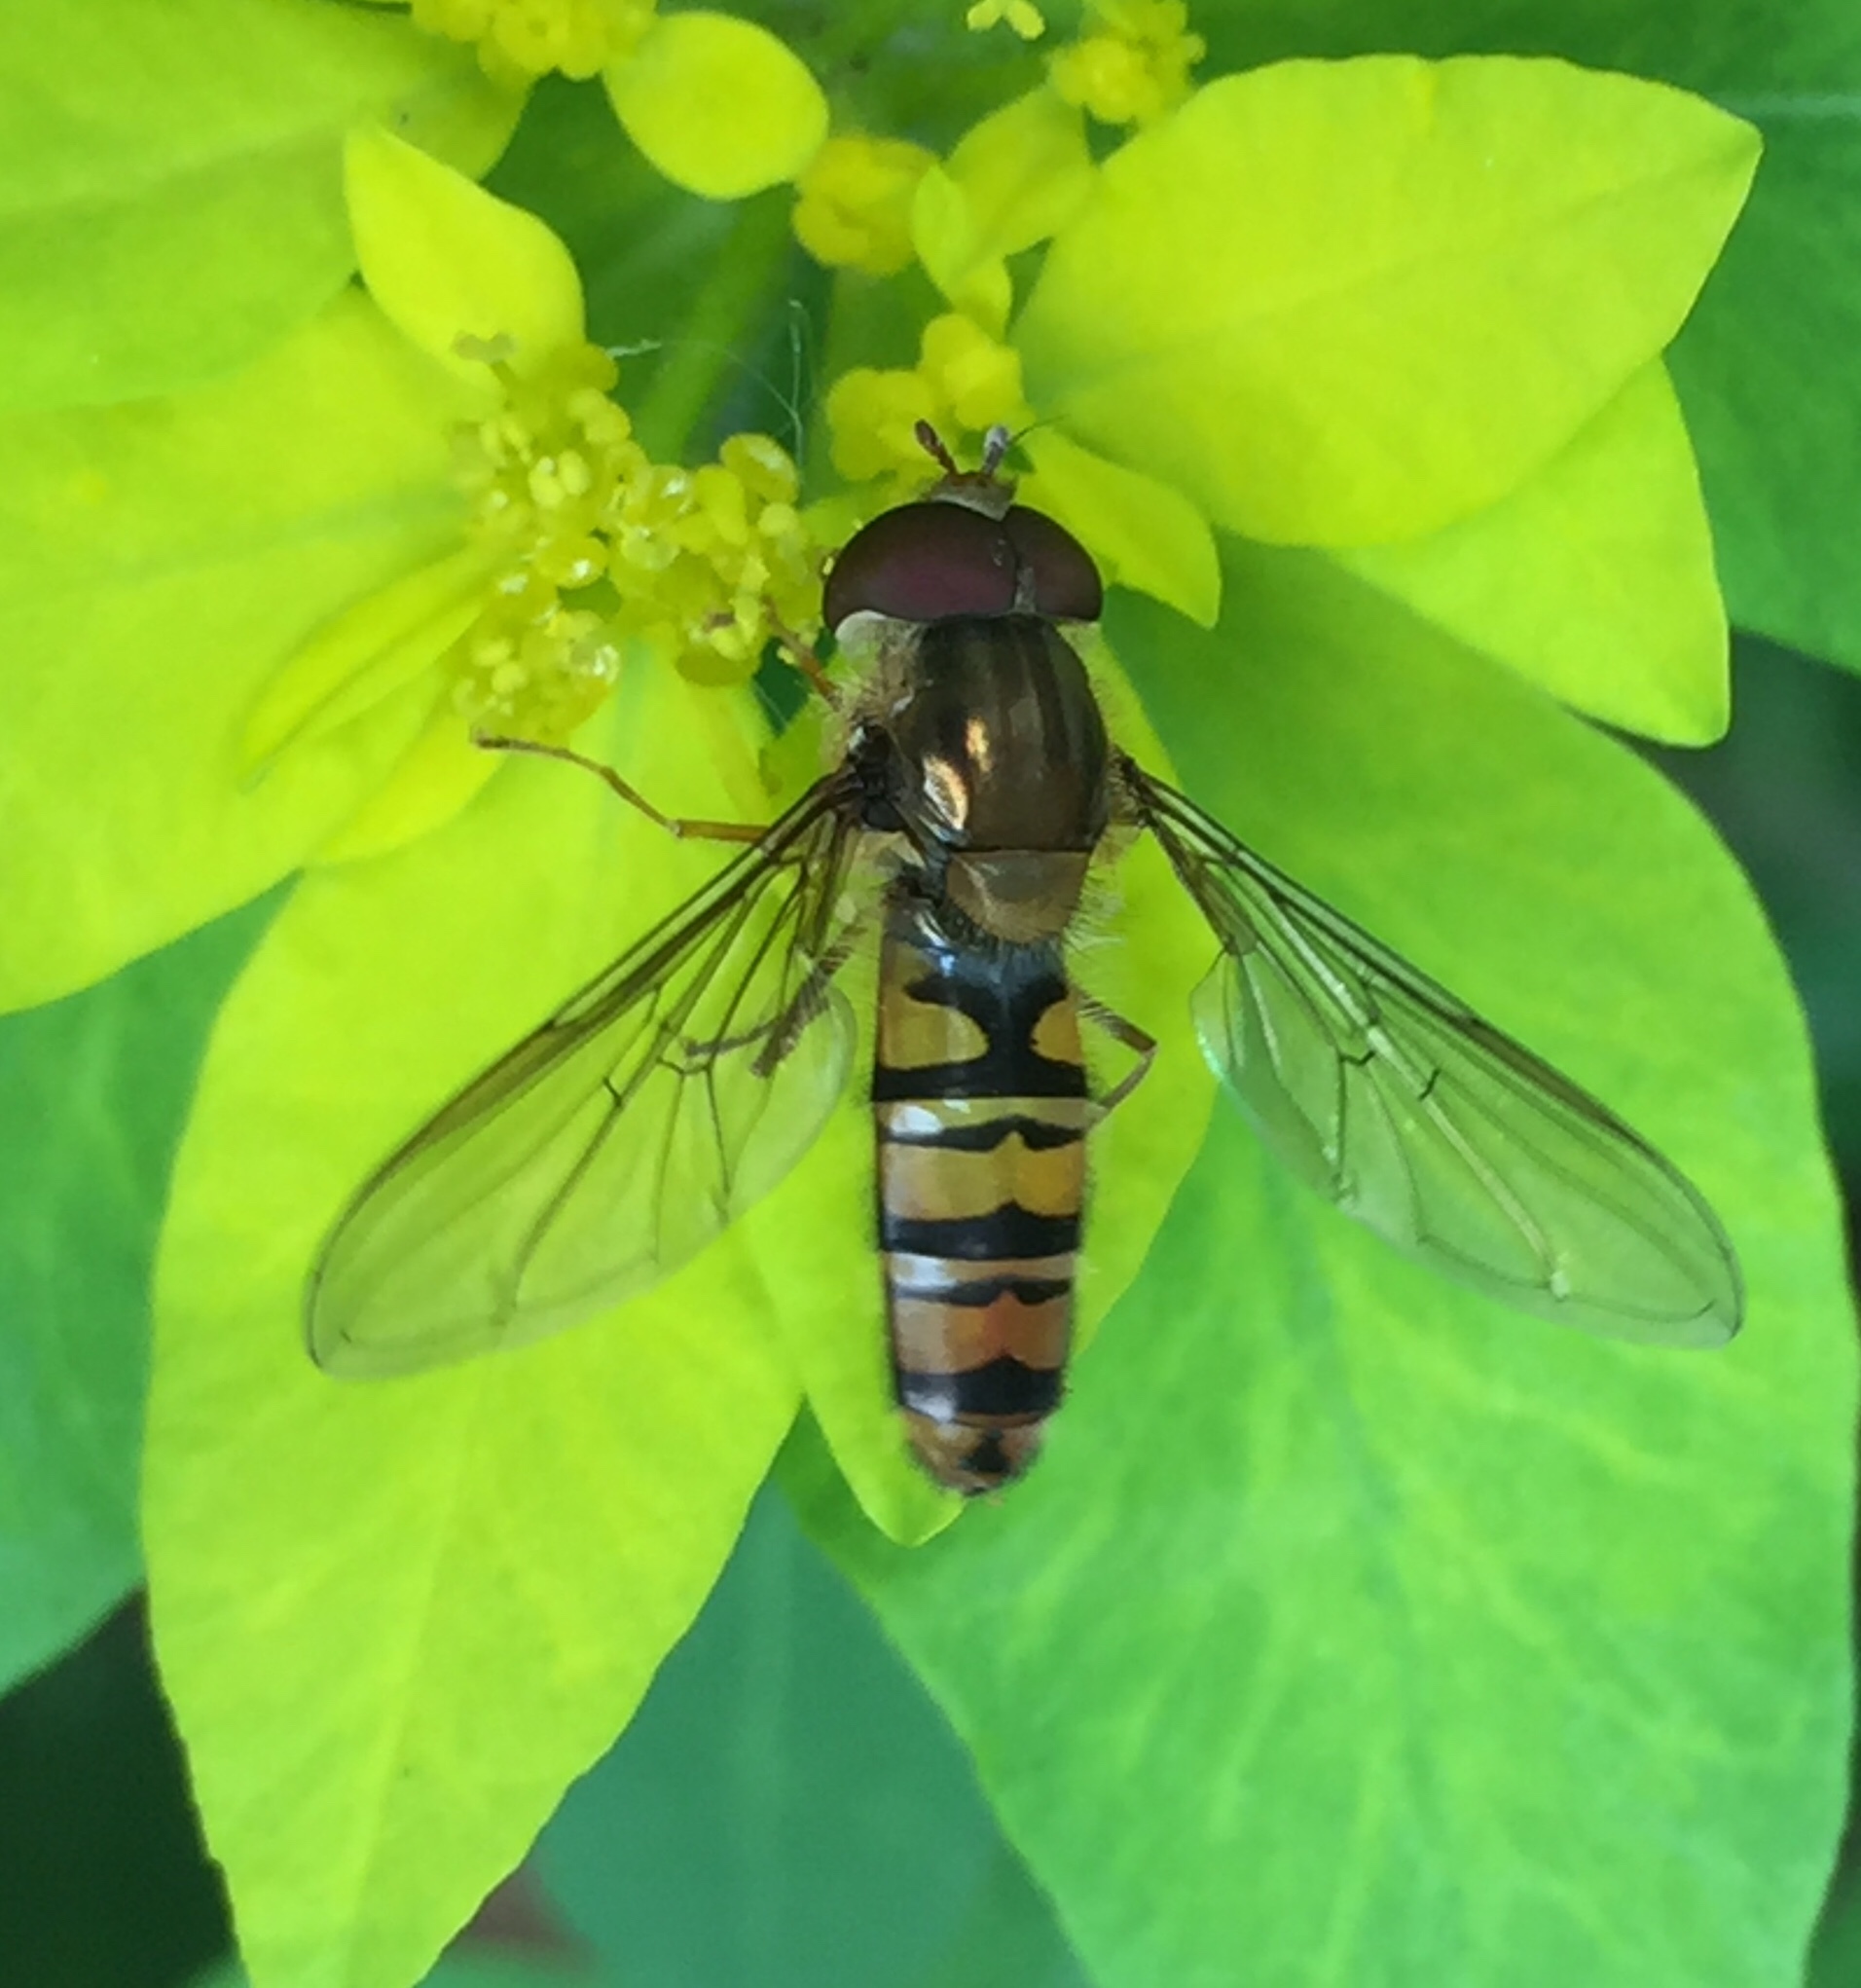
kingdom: Animalia
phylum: Arthropoda
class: Insecta
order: Diptera
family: Syrphidae
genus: Episyrphus
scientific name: Episyrphus balteatus
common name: Marmalade hoverfly
